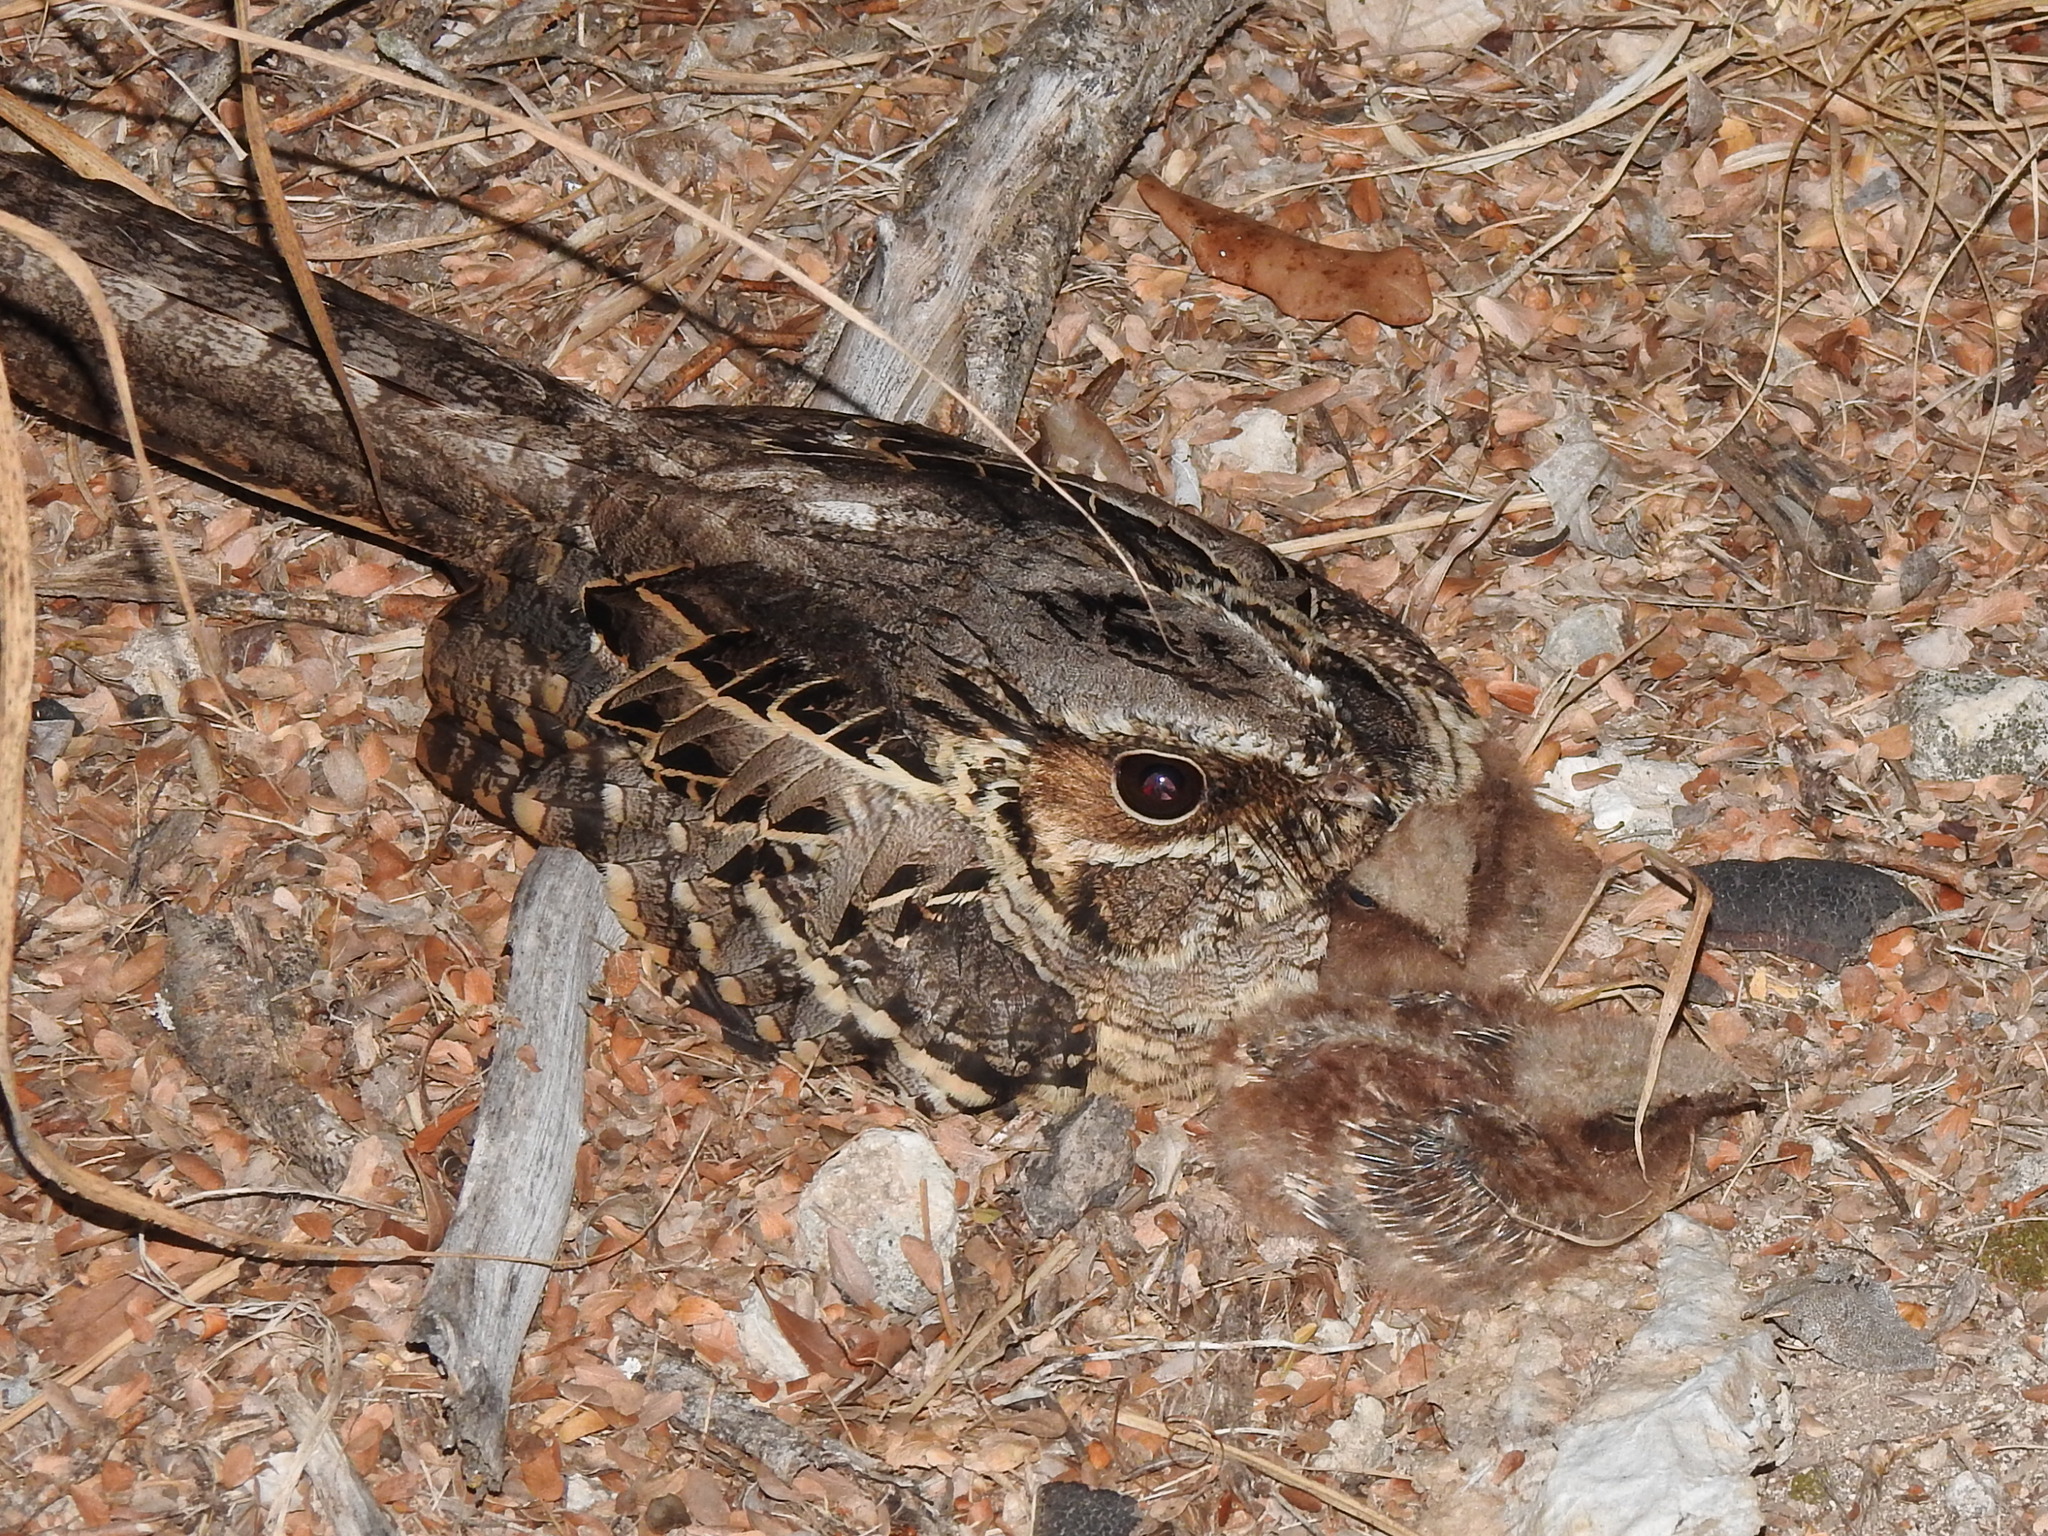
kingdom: Animalia
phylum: Chordata
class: Aves
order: Caprimulgiformes
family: Caprimulgidae
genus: Nyctidromus
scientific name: Nyctidromus albicollis
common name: Pauraque
